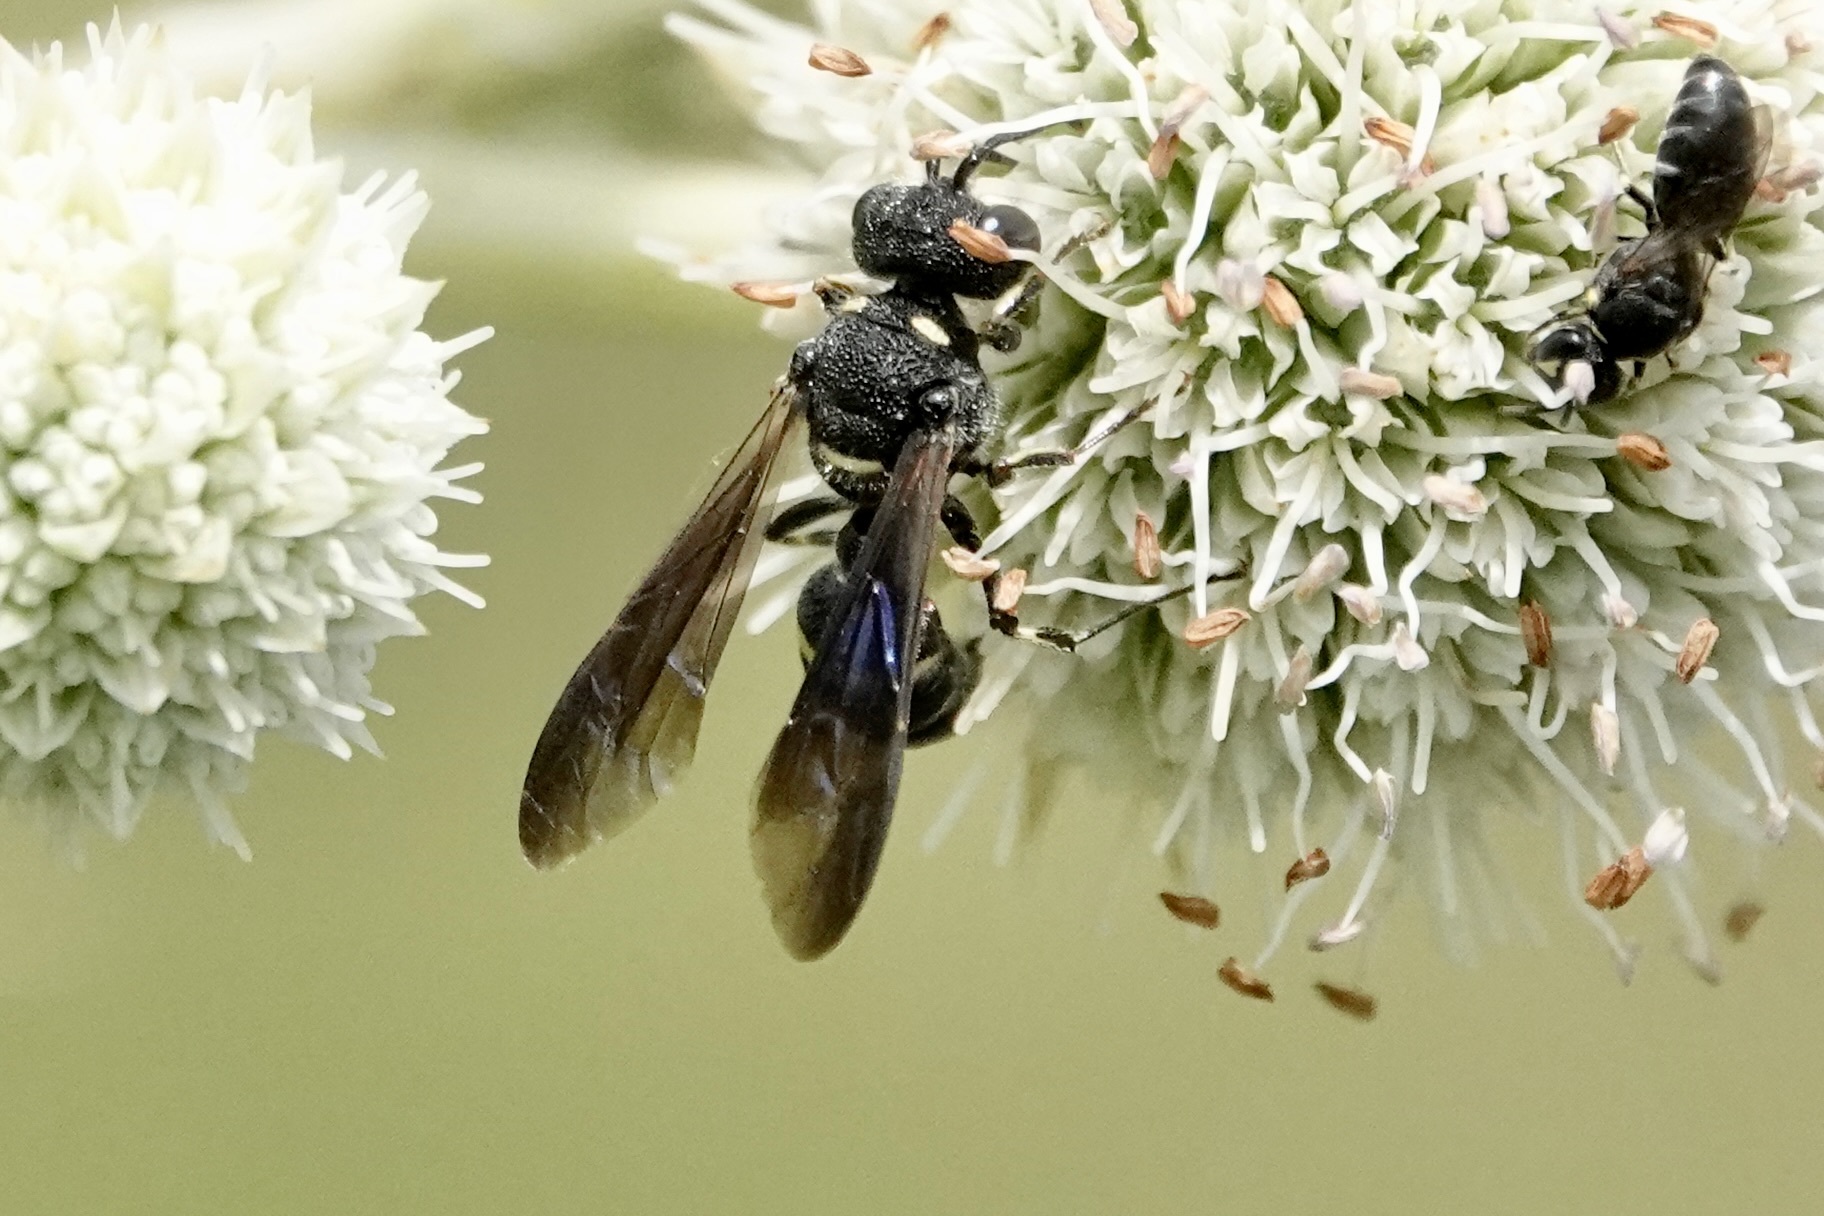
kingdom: Animalia
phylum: Arthropoda
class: Insecta
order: Hymenoptera
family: Crabronidae
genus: Cerceris
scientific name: Cerceris fumipennis
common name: Smokey-winged beetle bandit wasp
